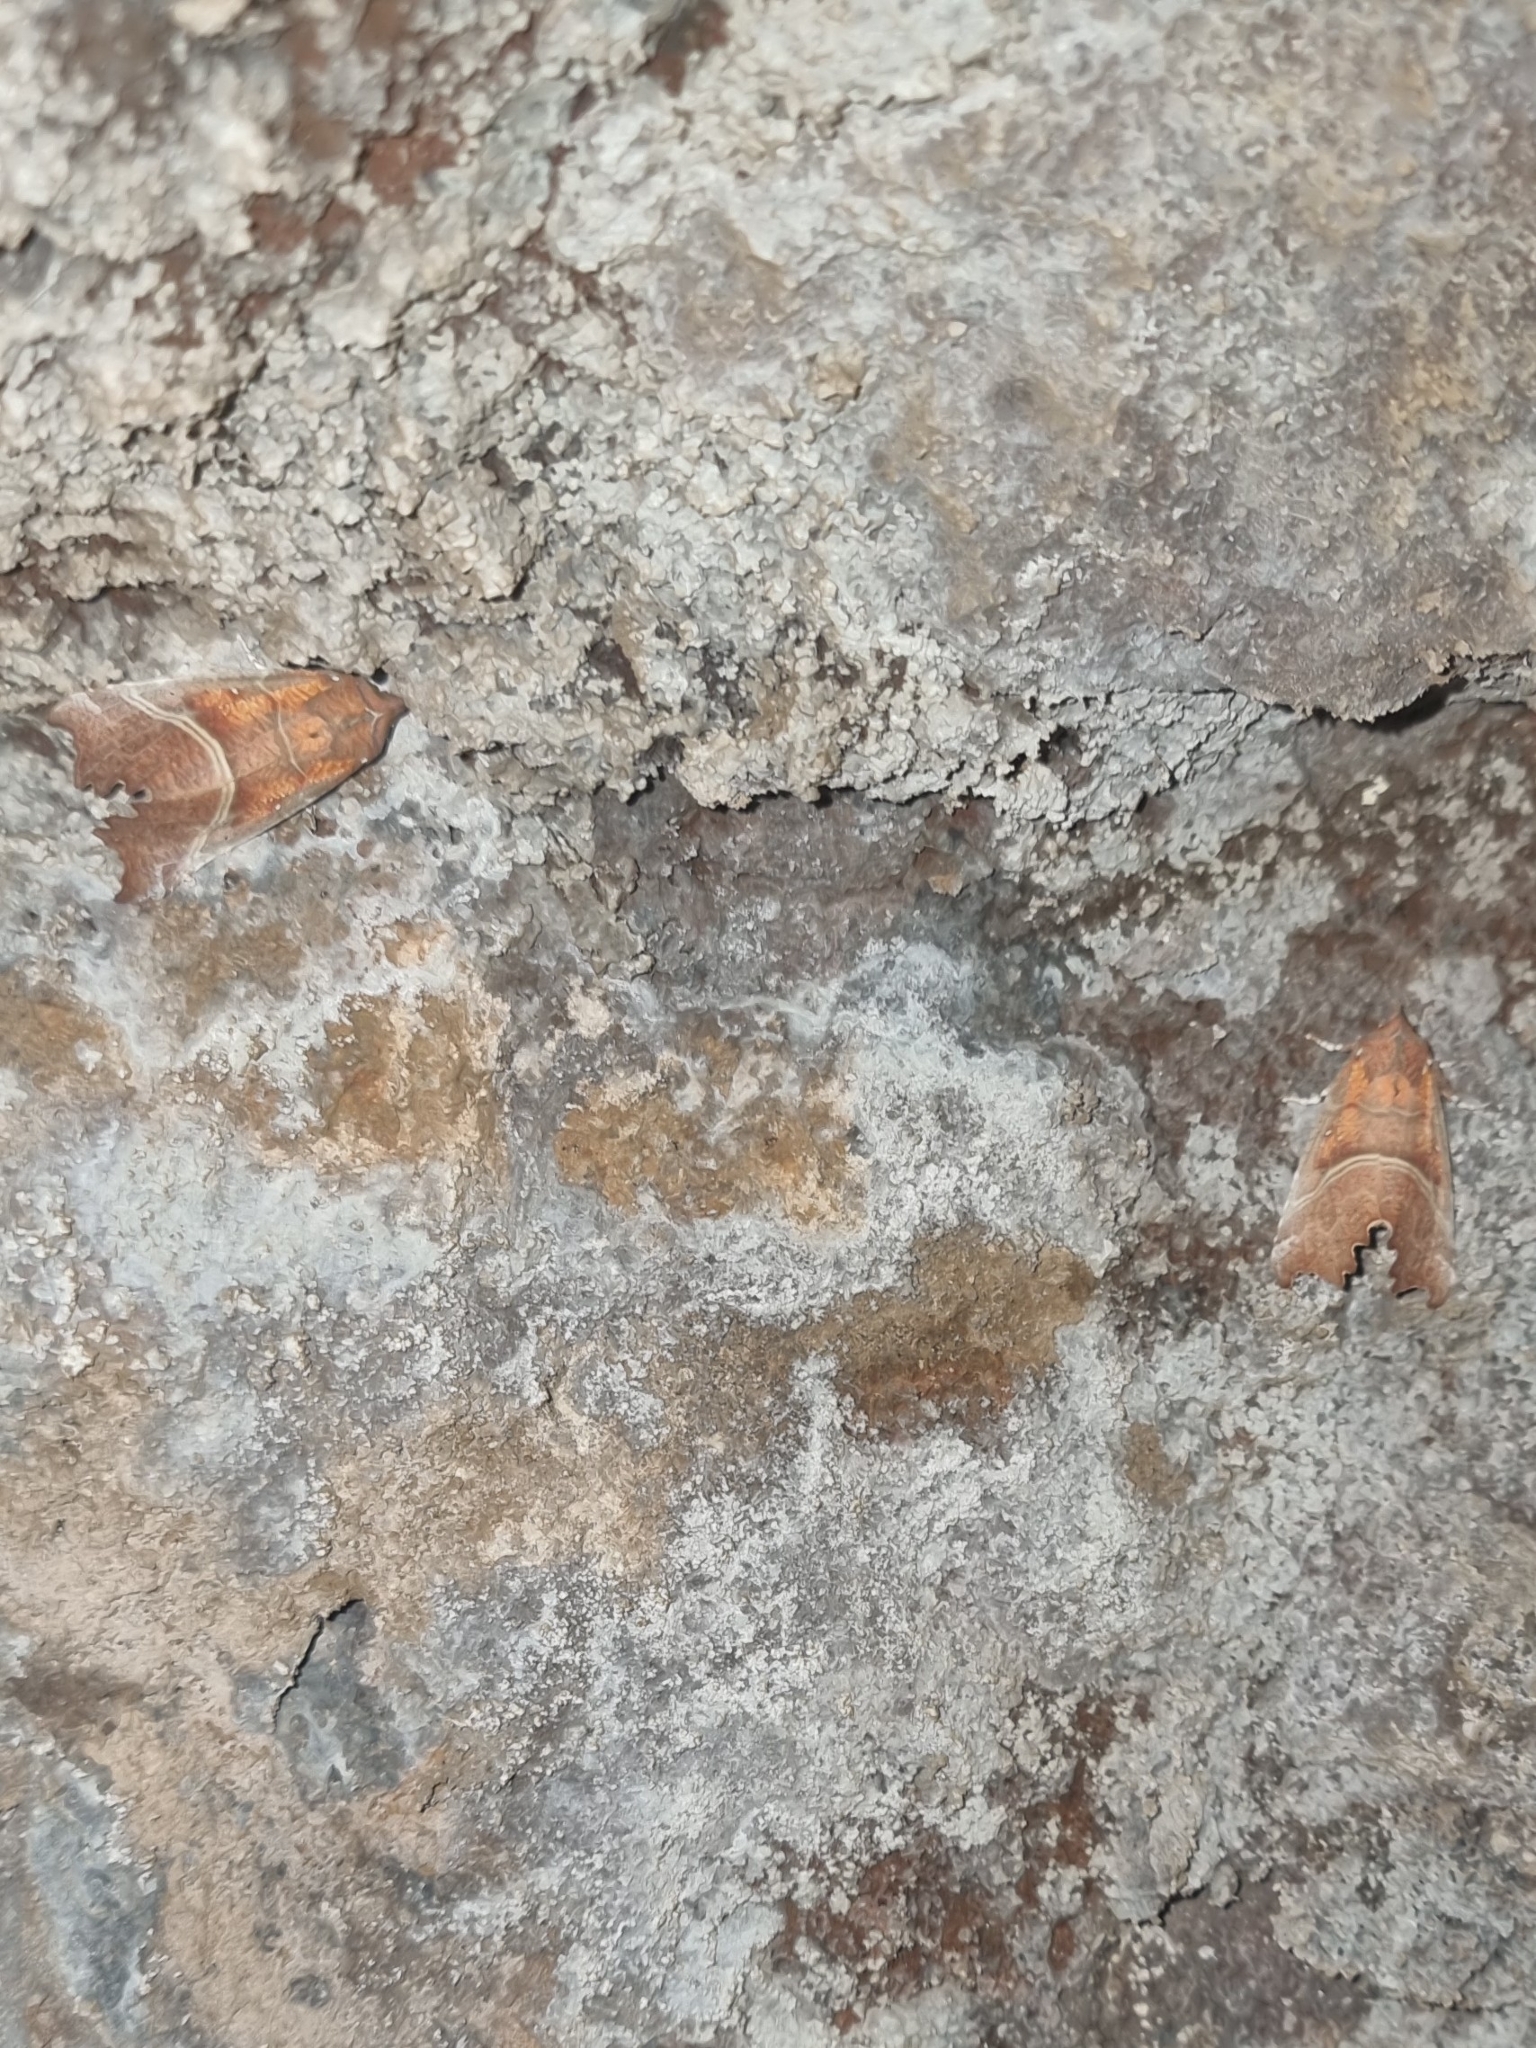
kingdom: Animalia
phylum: Arthropoda
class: Insecta
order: Lepidoptera
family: Erebidae
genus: Scoliopteryx
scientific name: Scoliopteryx libatrix
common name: Herald
